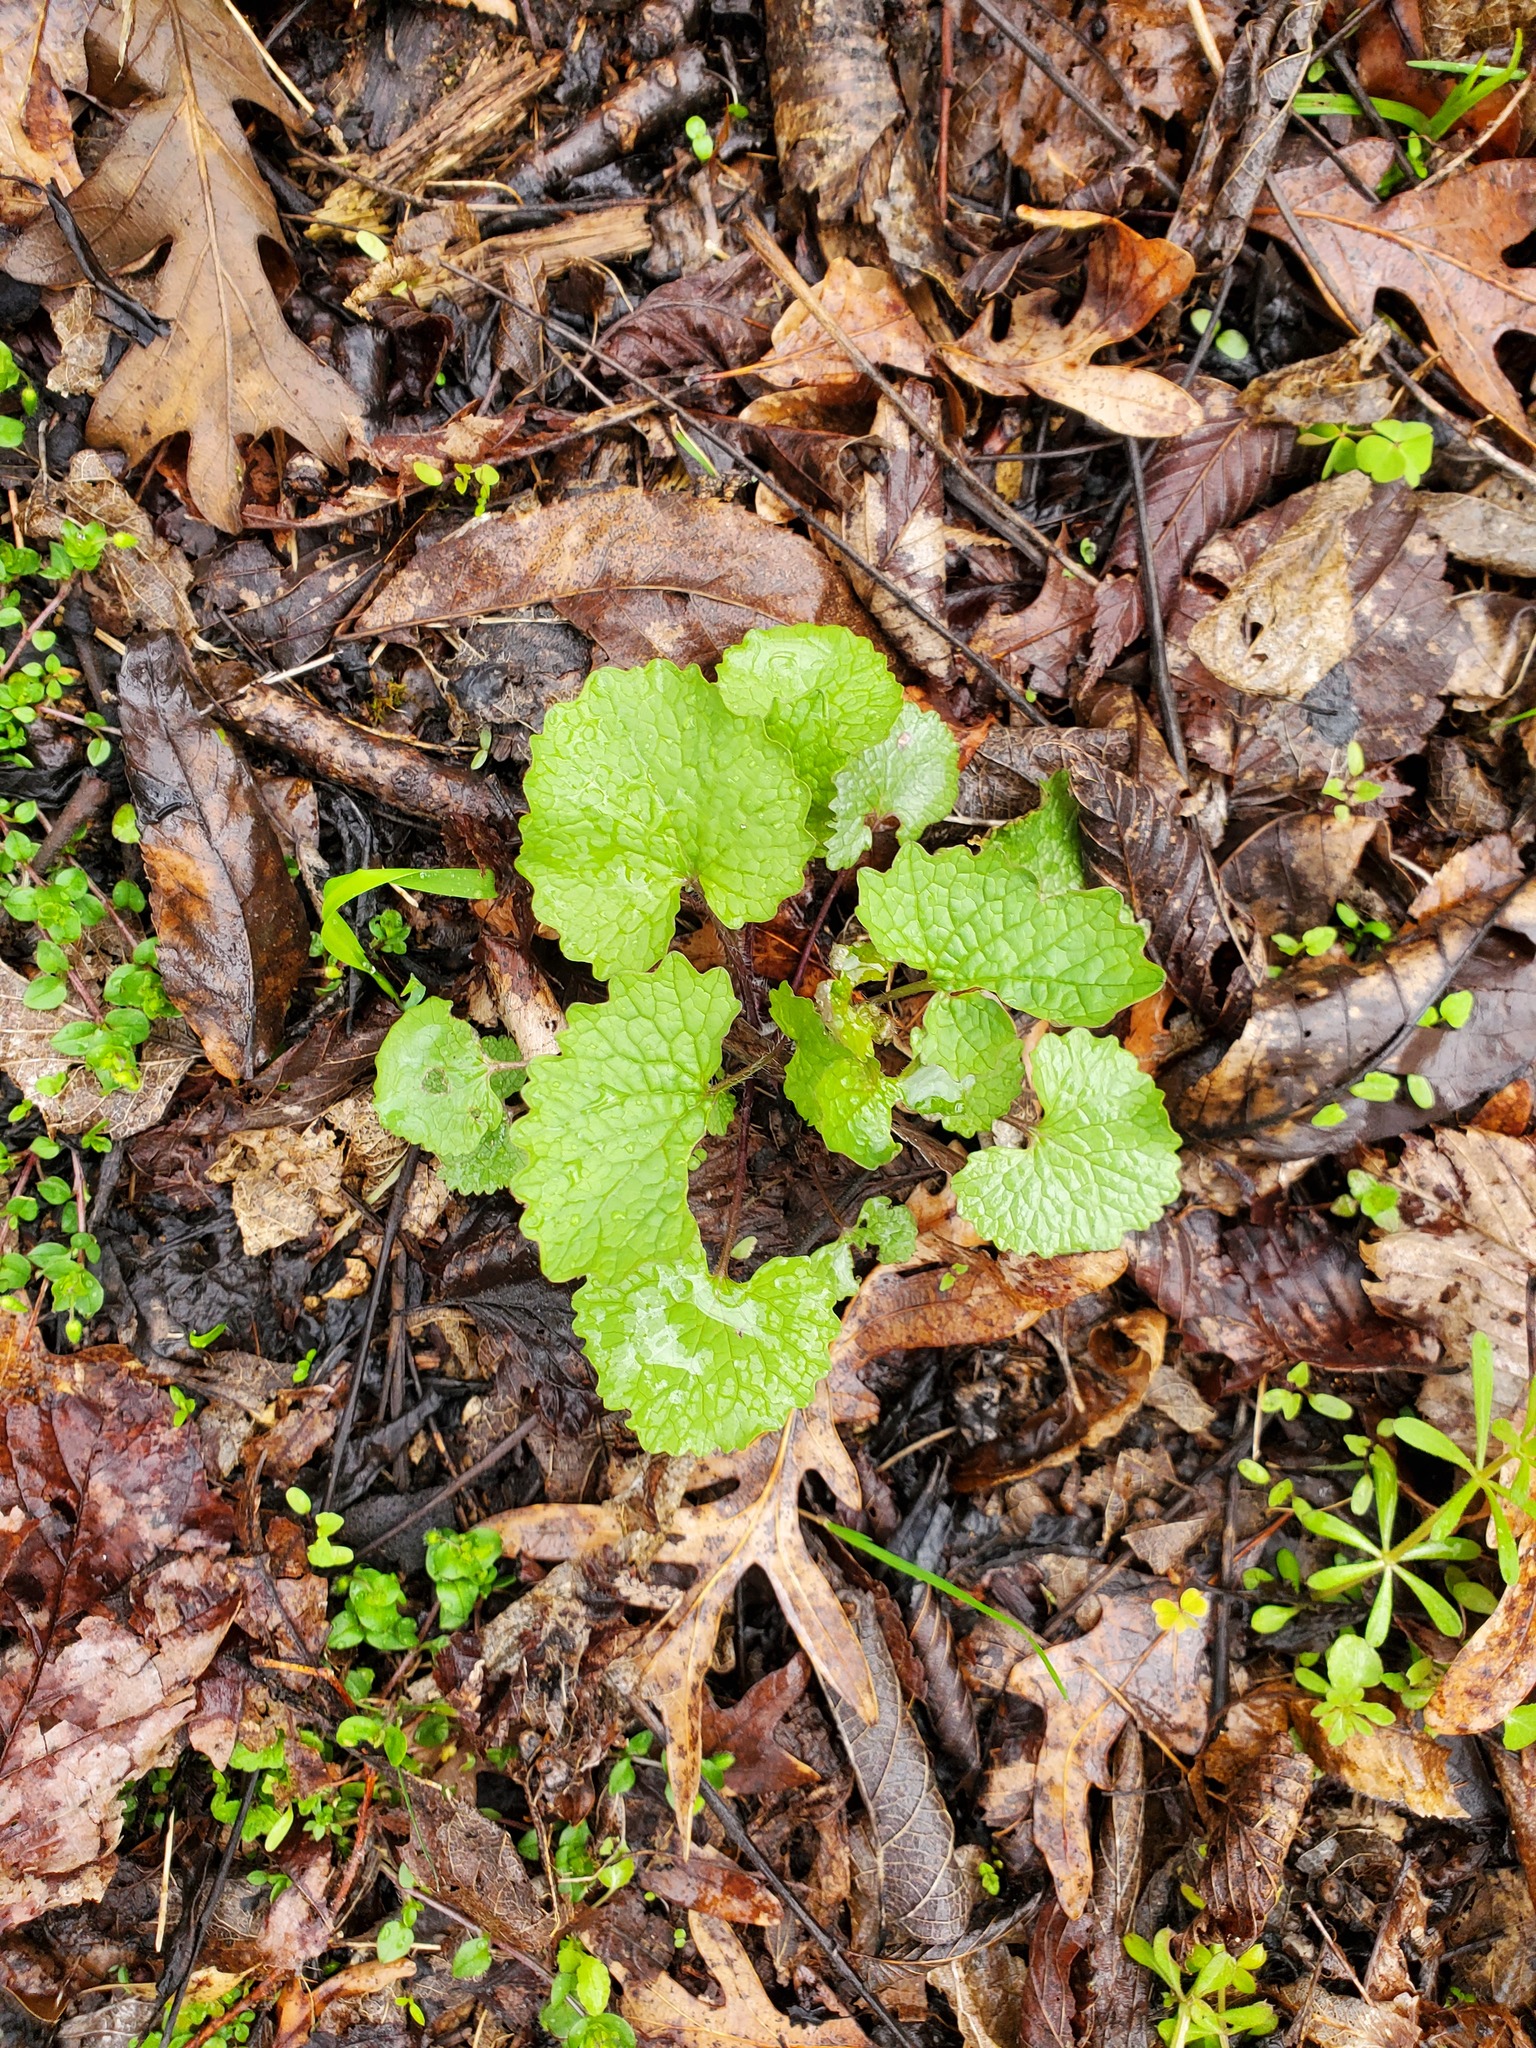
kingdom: Plantae
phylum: Tracheophyta
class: Magnoliopsida
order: Brassicales
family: Brassicaceae
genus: Alliaria
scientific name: Alliaria petiolata
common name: Garlic mustard
